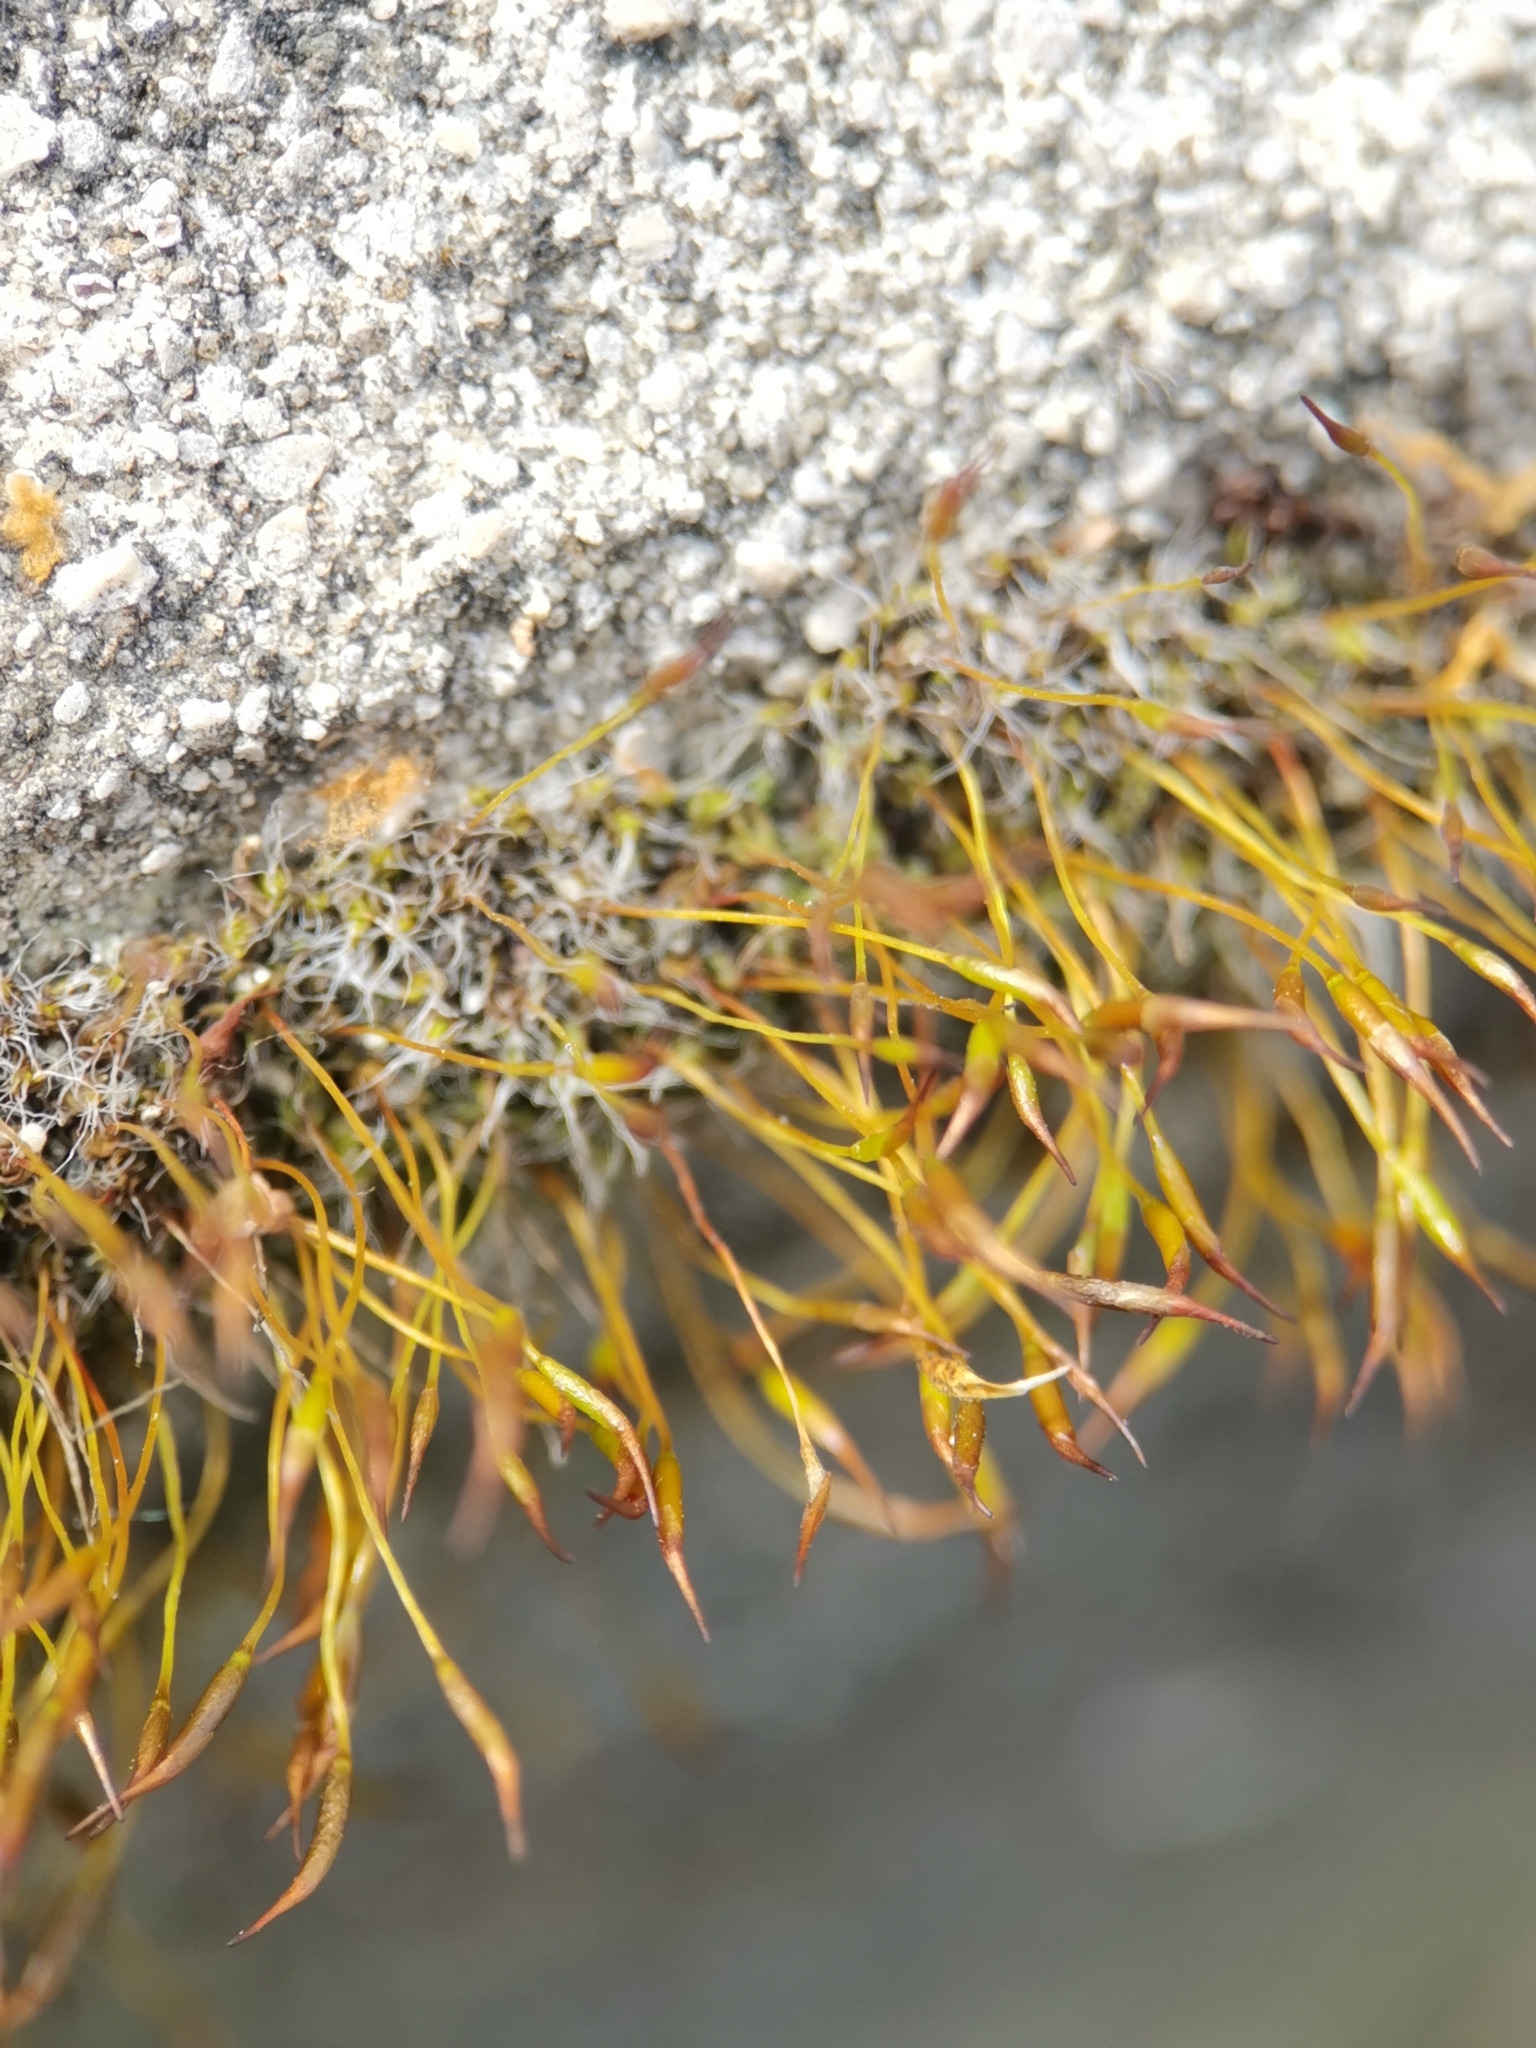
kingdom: Plantae
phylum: Bryophyta
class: Bryopsida
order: Pottiales
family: Pottiaceae
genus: Tortula
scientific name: Tortula muralis
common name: Wall screw-moss
